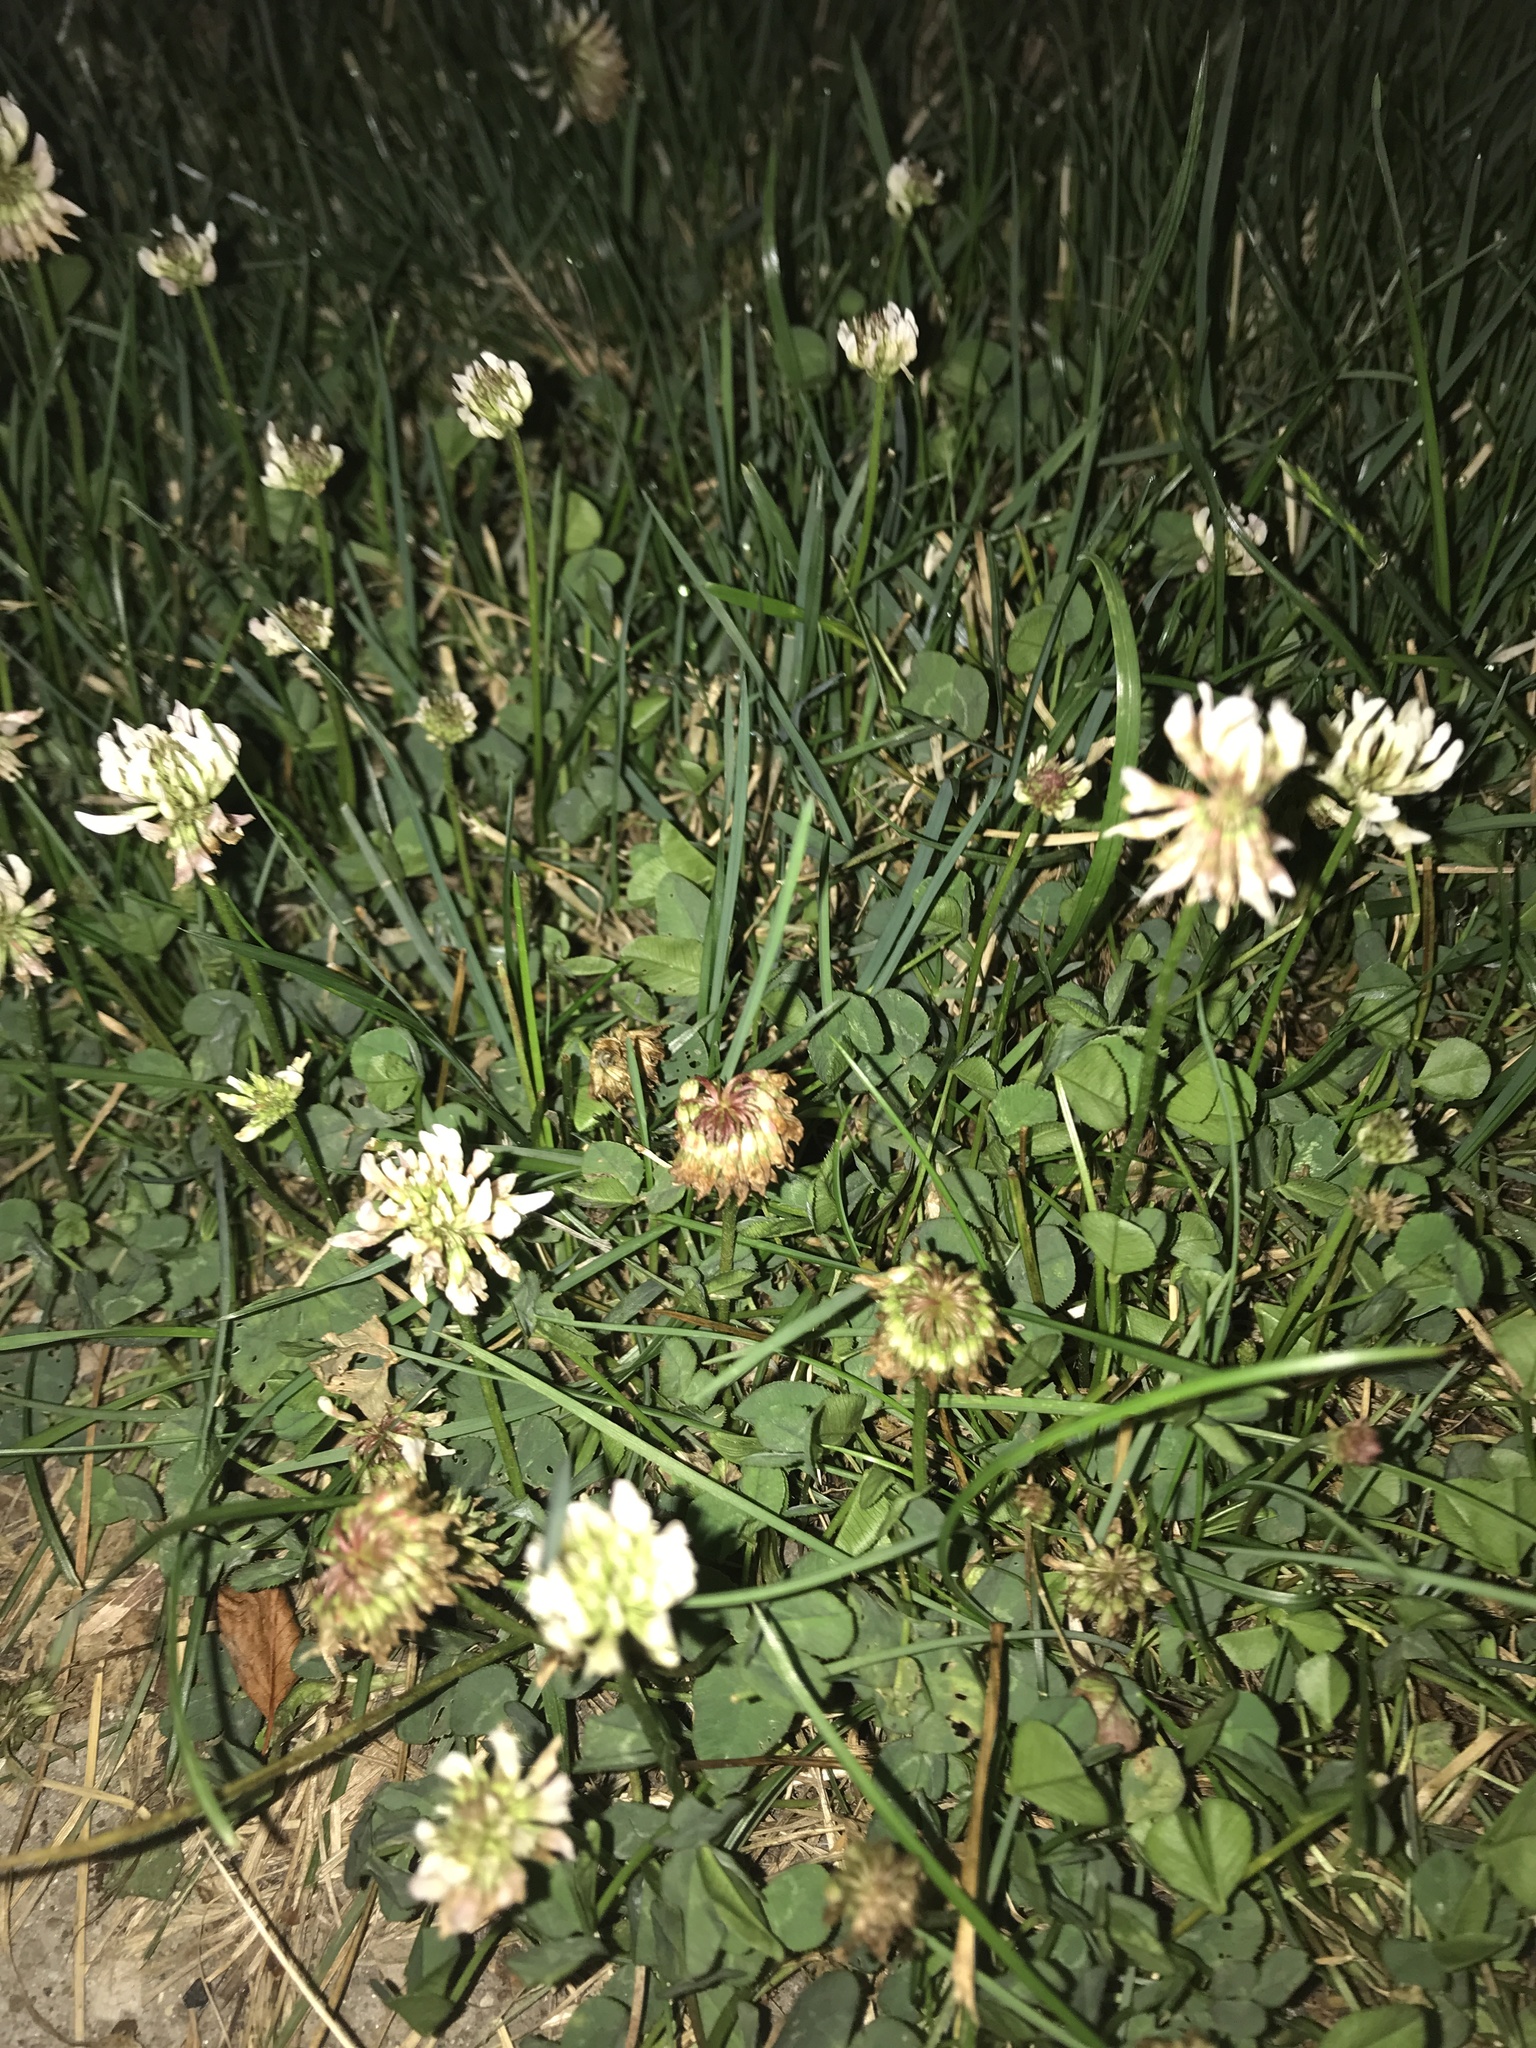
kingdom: Plantae
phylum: Tracheophyta
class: Magnoliopsida
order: Fabales
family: Fabaceae
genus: Trifolium
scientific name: Trifolium repens
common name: White clover
